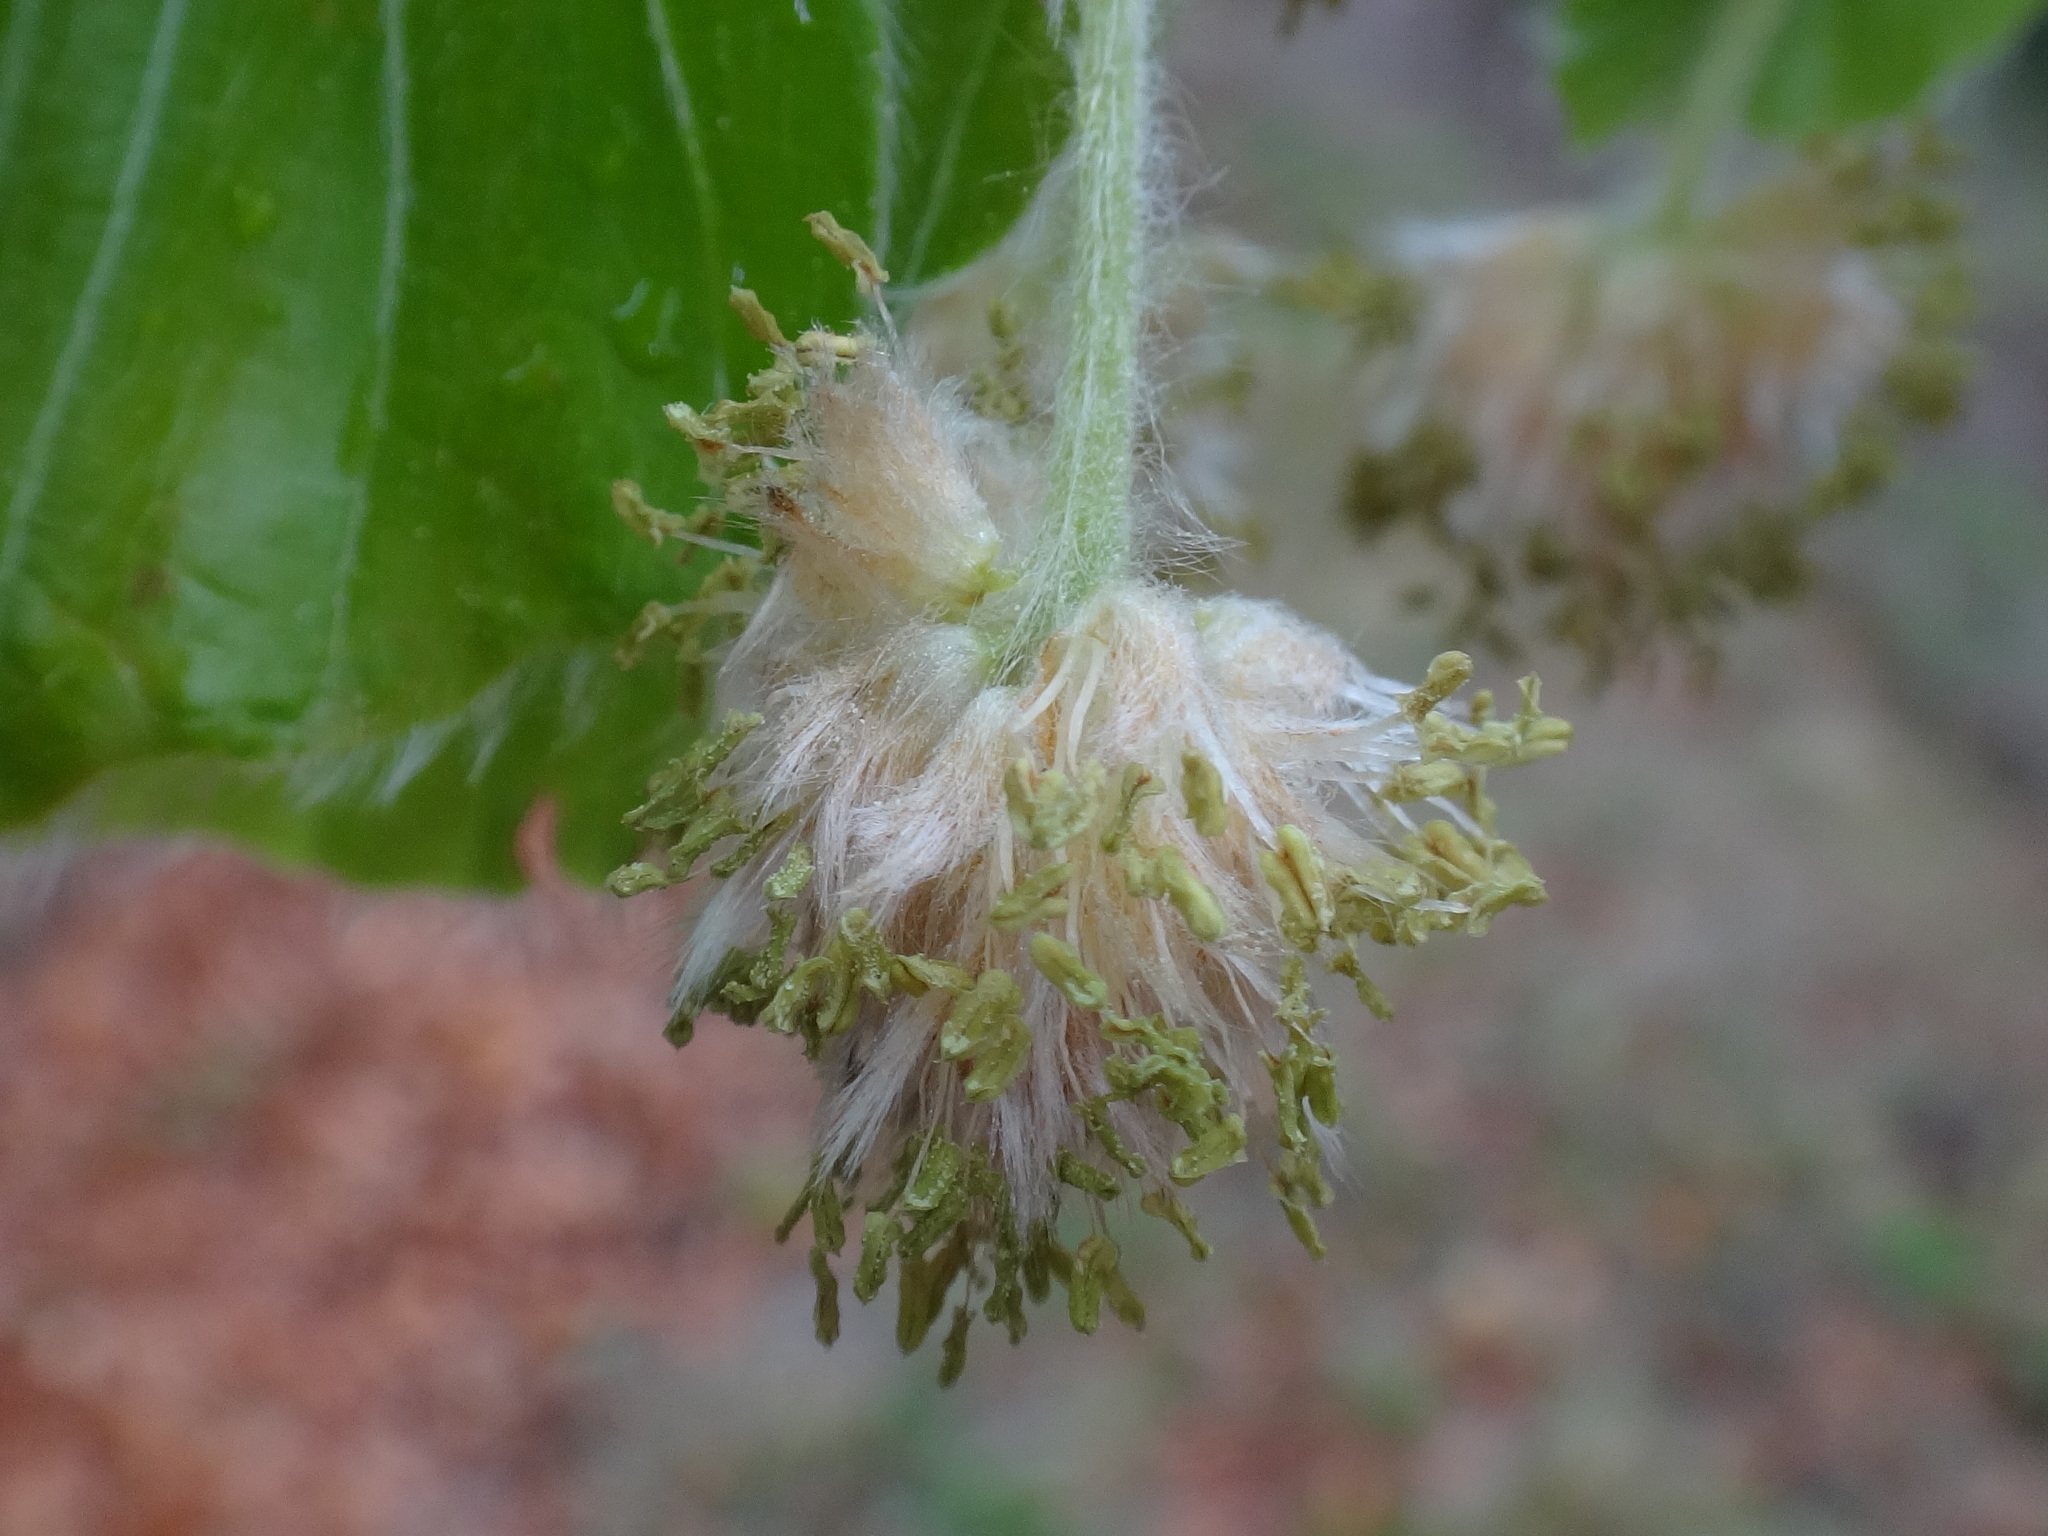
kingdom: Plantae
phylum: Tracheophyta
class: Magnoliopsida
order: Fagales
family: Fagaceae
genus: Fagus
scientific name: Fagus sylvatica
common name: Beech
